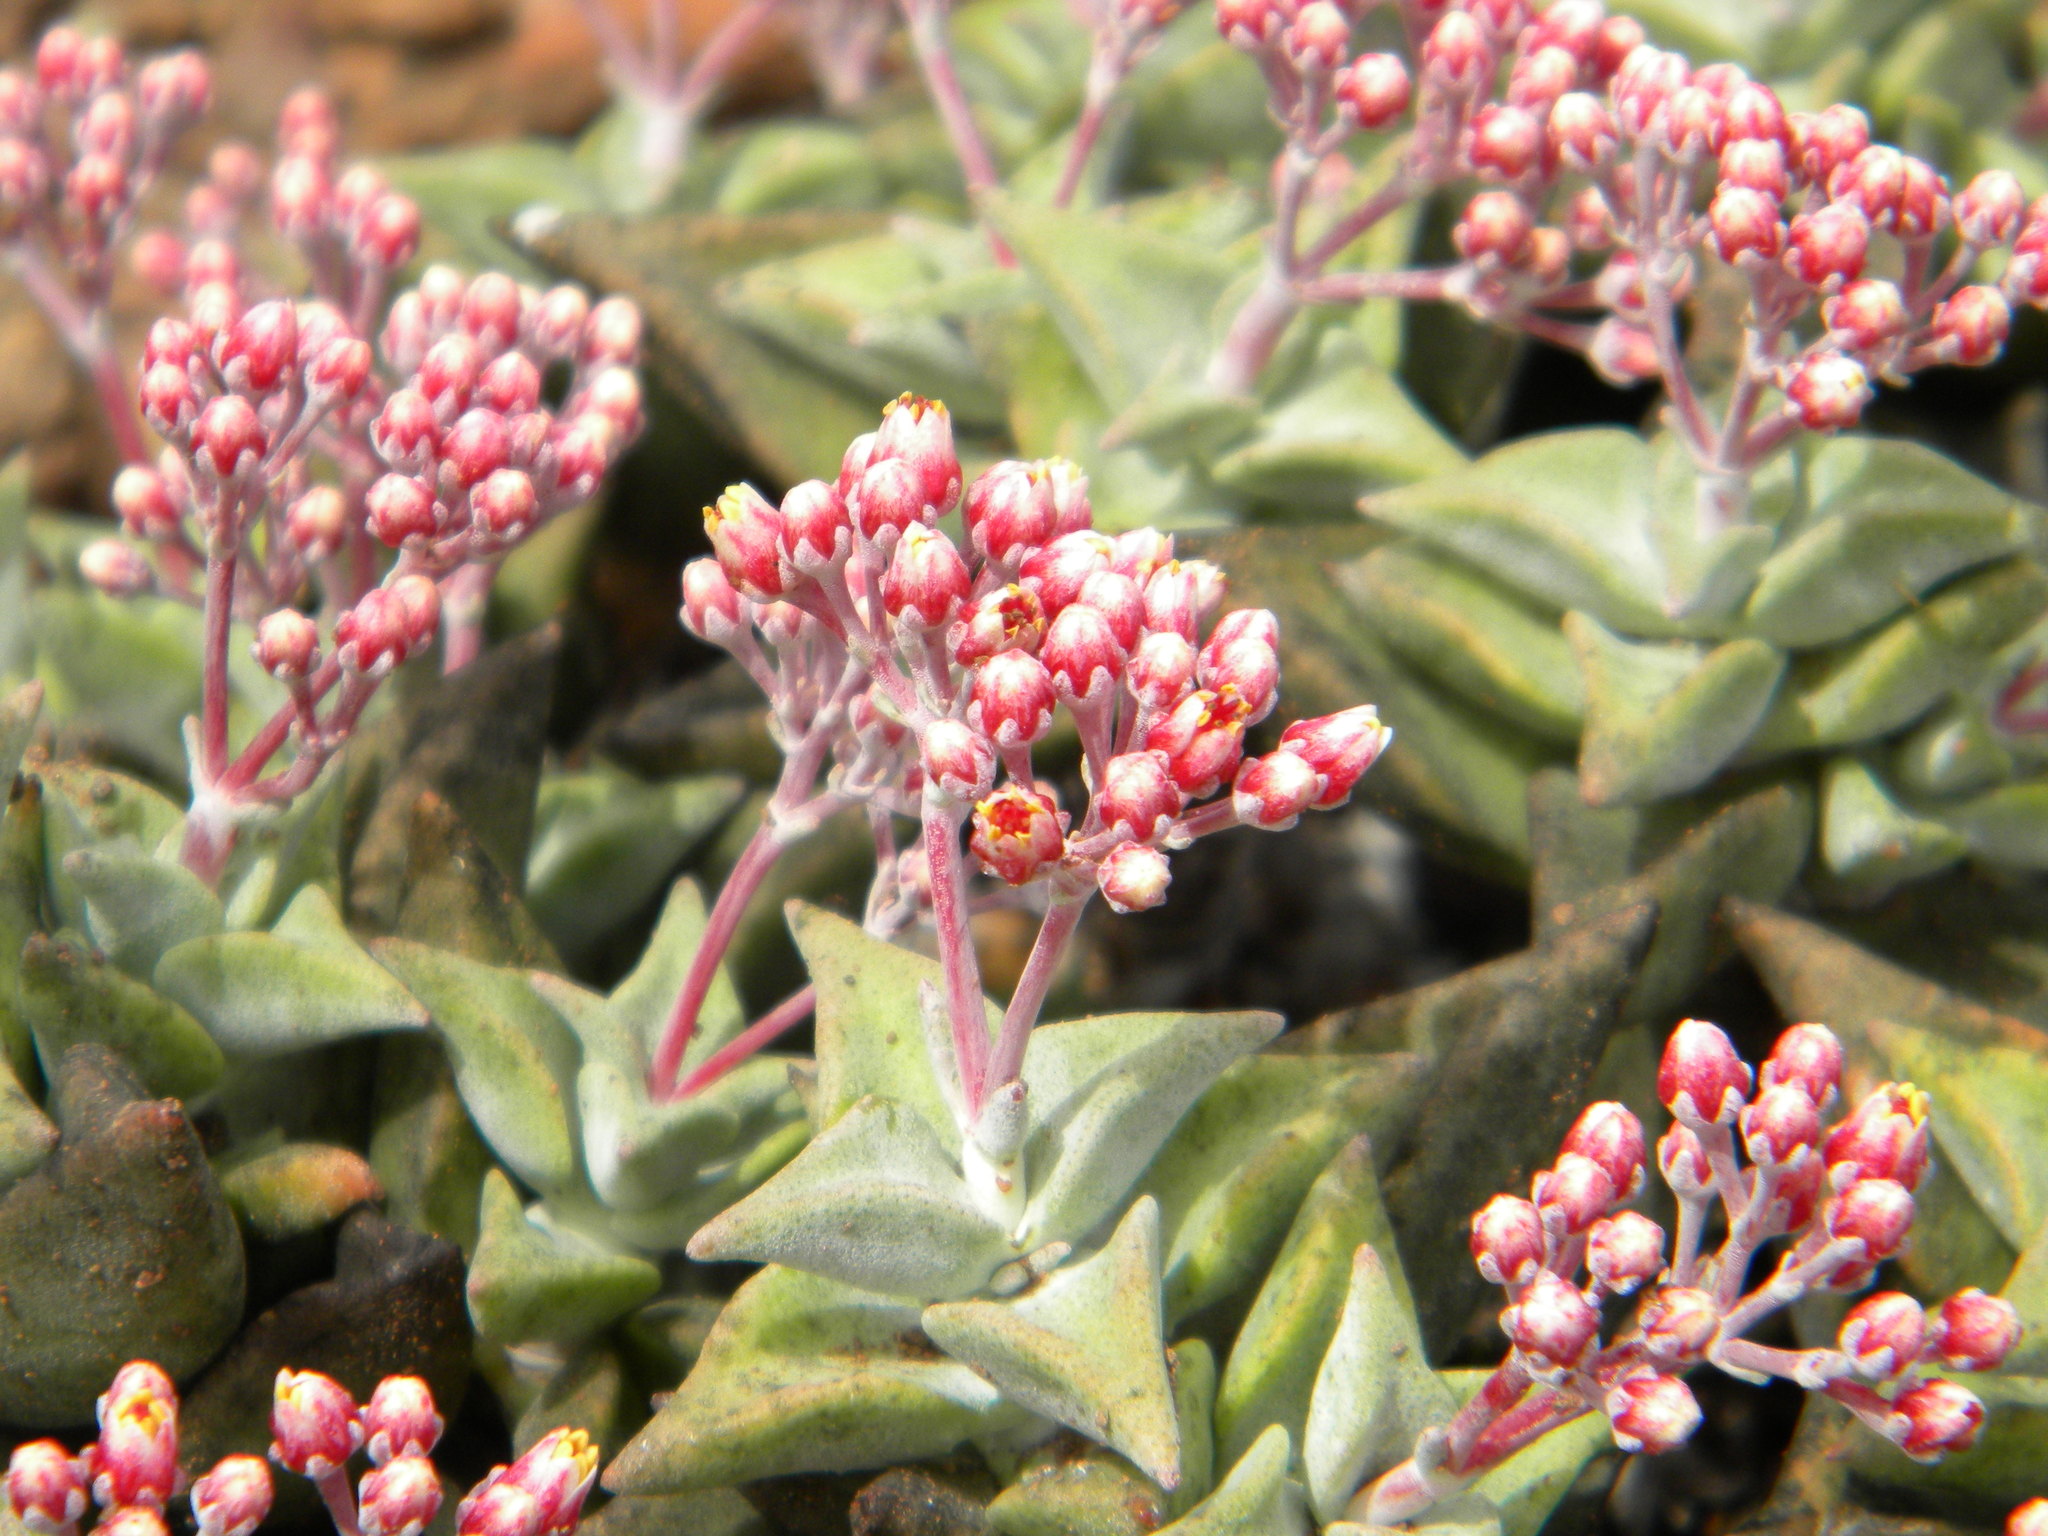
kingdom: Plantae
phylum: Tracheophyta
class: Magnoliopsida
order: Saxifragales
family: Crassulaceae
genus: Crassula
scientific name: Crassula deltoidea
